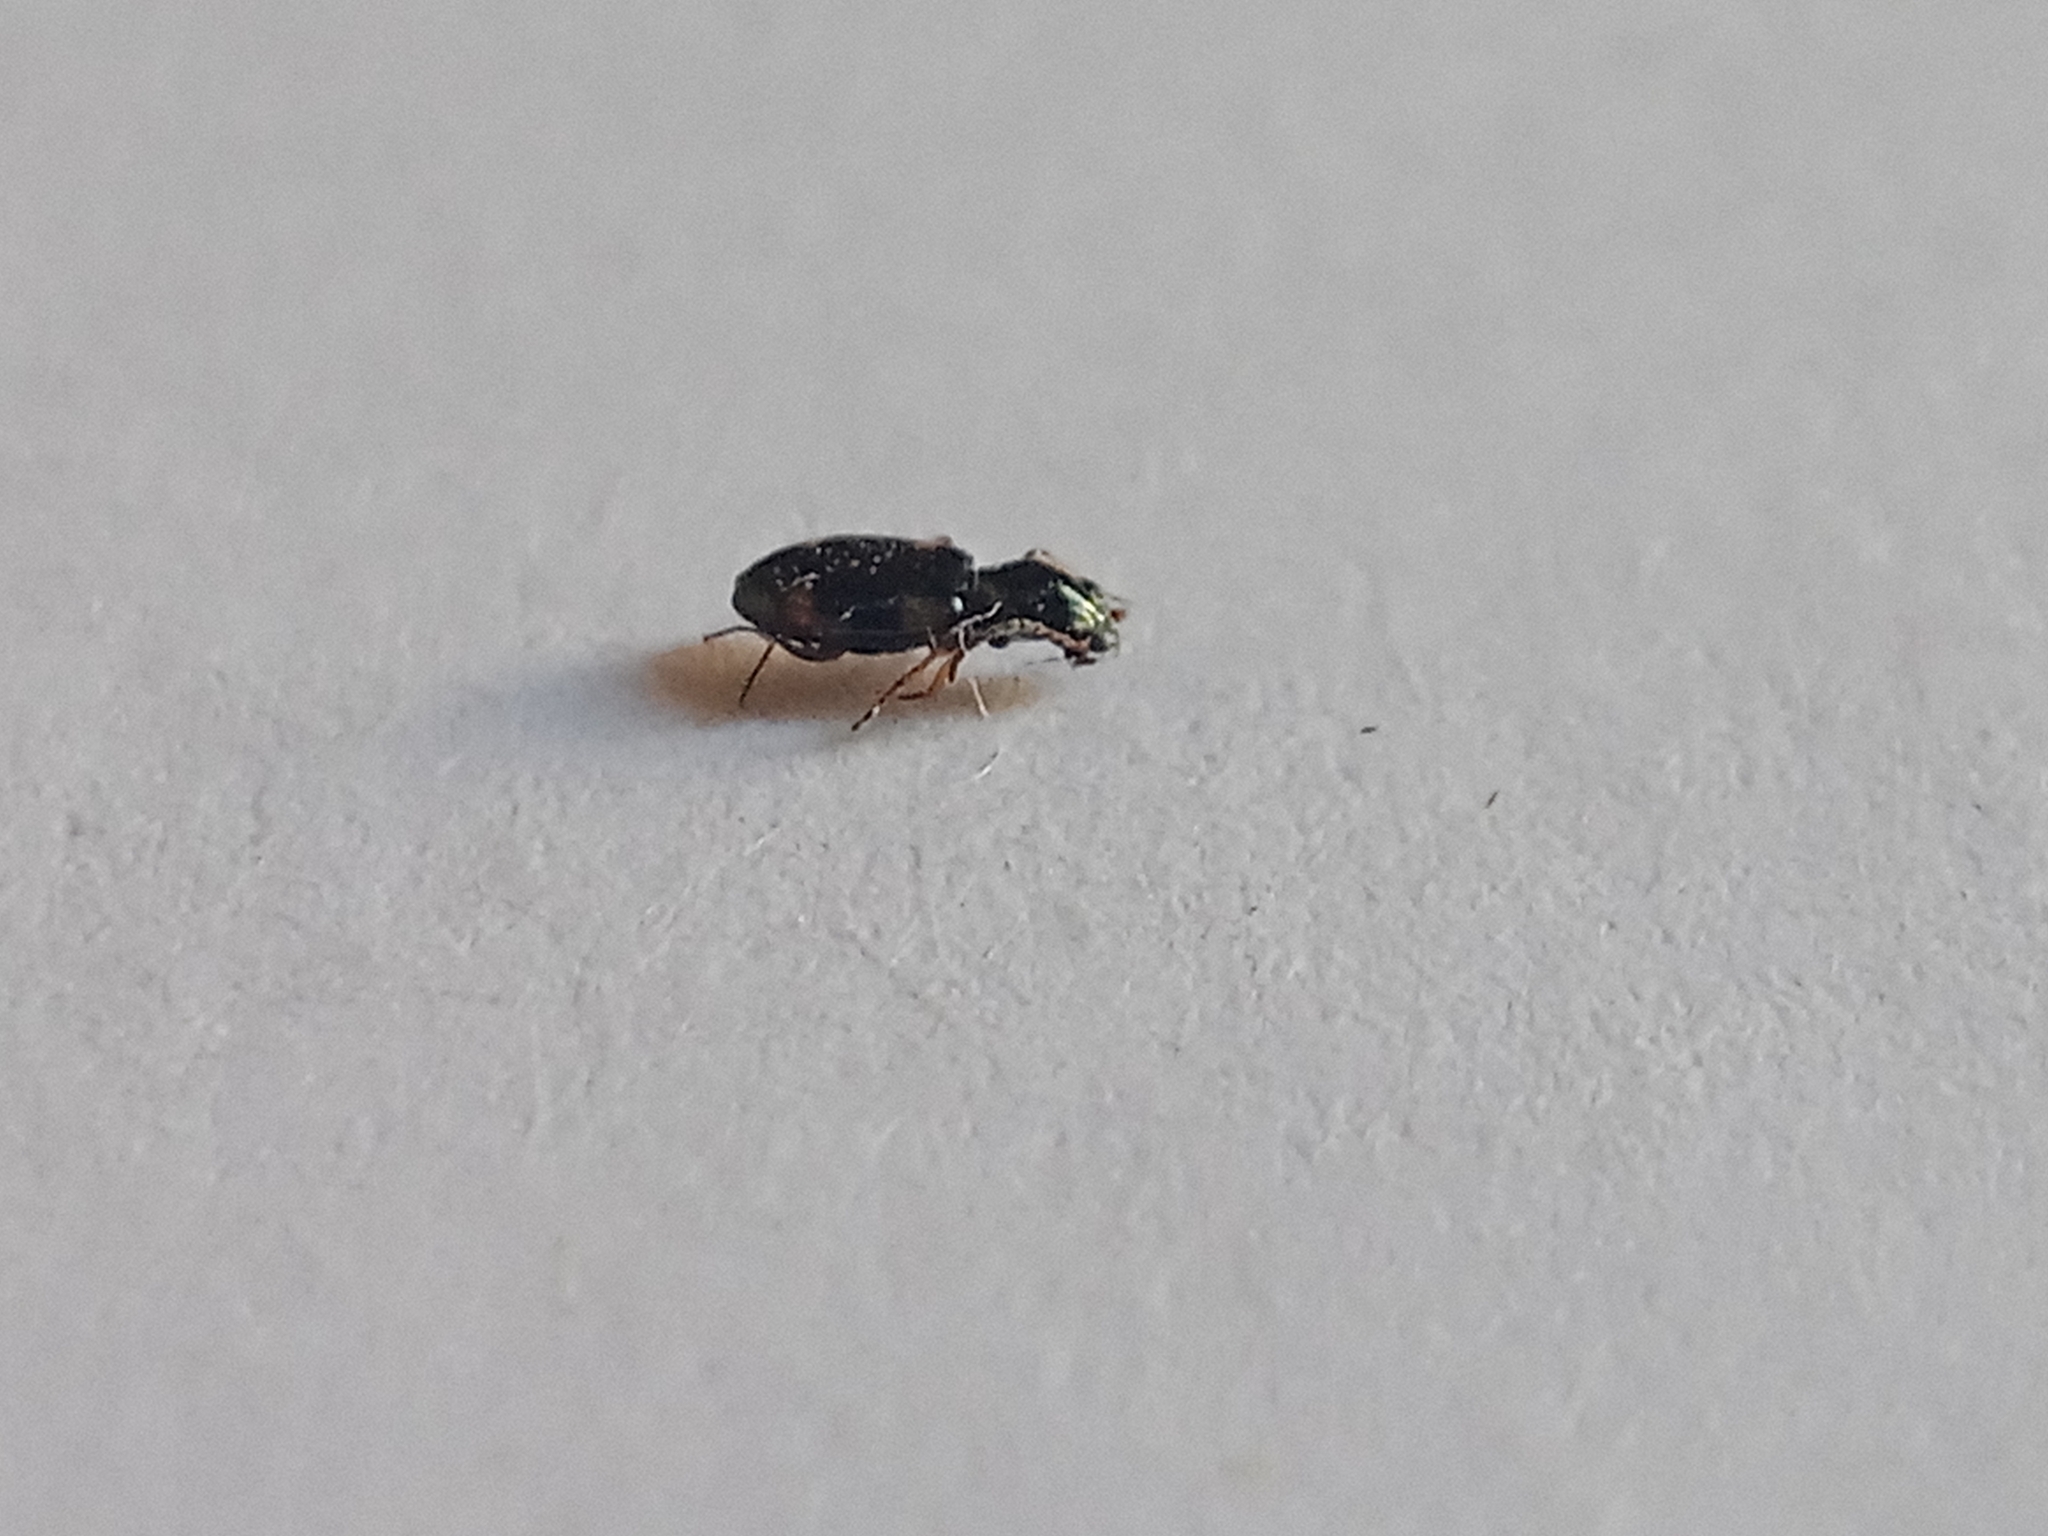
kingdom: Animalia
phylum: Arthropoda
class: Insecta
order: Coleoptera
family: Carabidae
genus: Bembidion
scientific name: Bembidion quadrimaculatum
